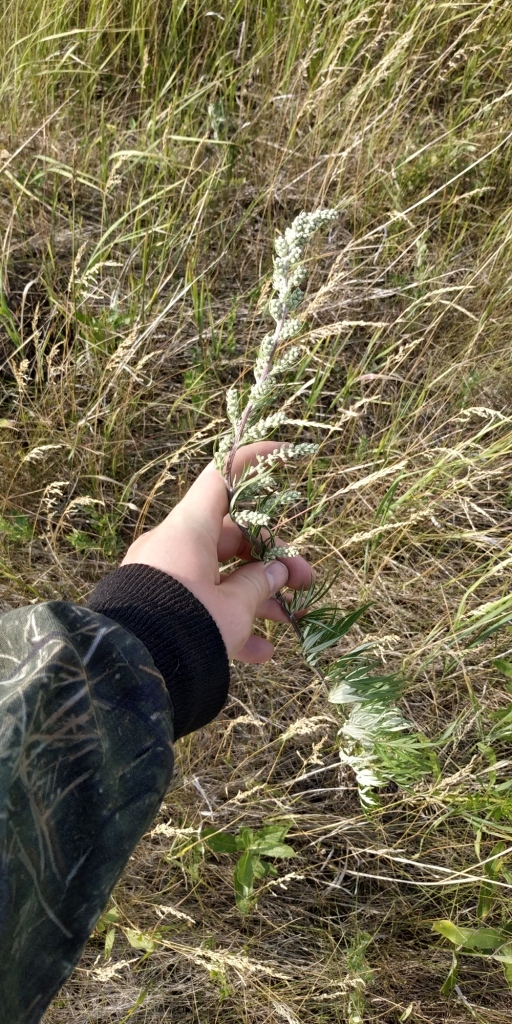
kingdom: Plantae
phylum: Tracheophyta
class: Magnoliopsida
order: Asterales
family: Asteraceae
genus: Artemisia
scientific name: Artemisia vulgaris
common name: Mugwort
